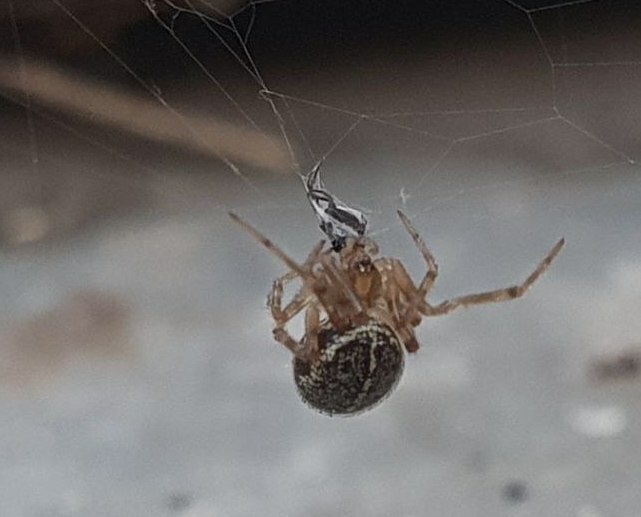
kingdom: Animalia
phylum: Arthropoda
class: Arachnida
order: Araneae
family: Theridiidae
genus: Steatoda
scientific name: Steatoda castanea
